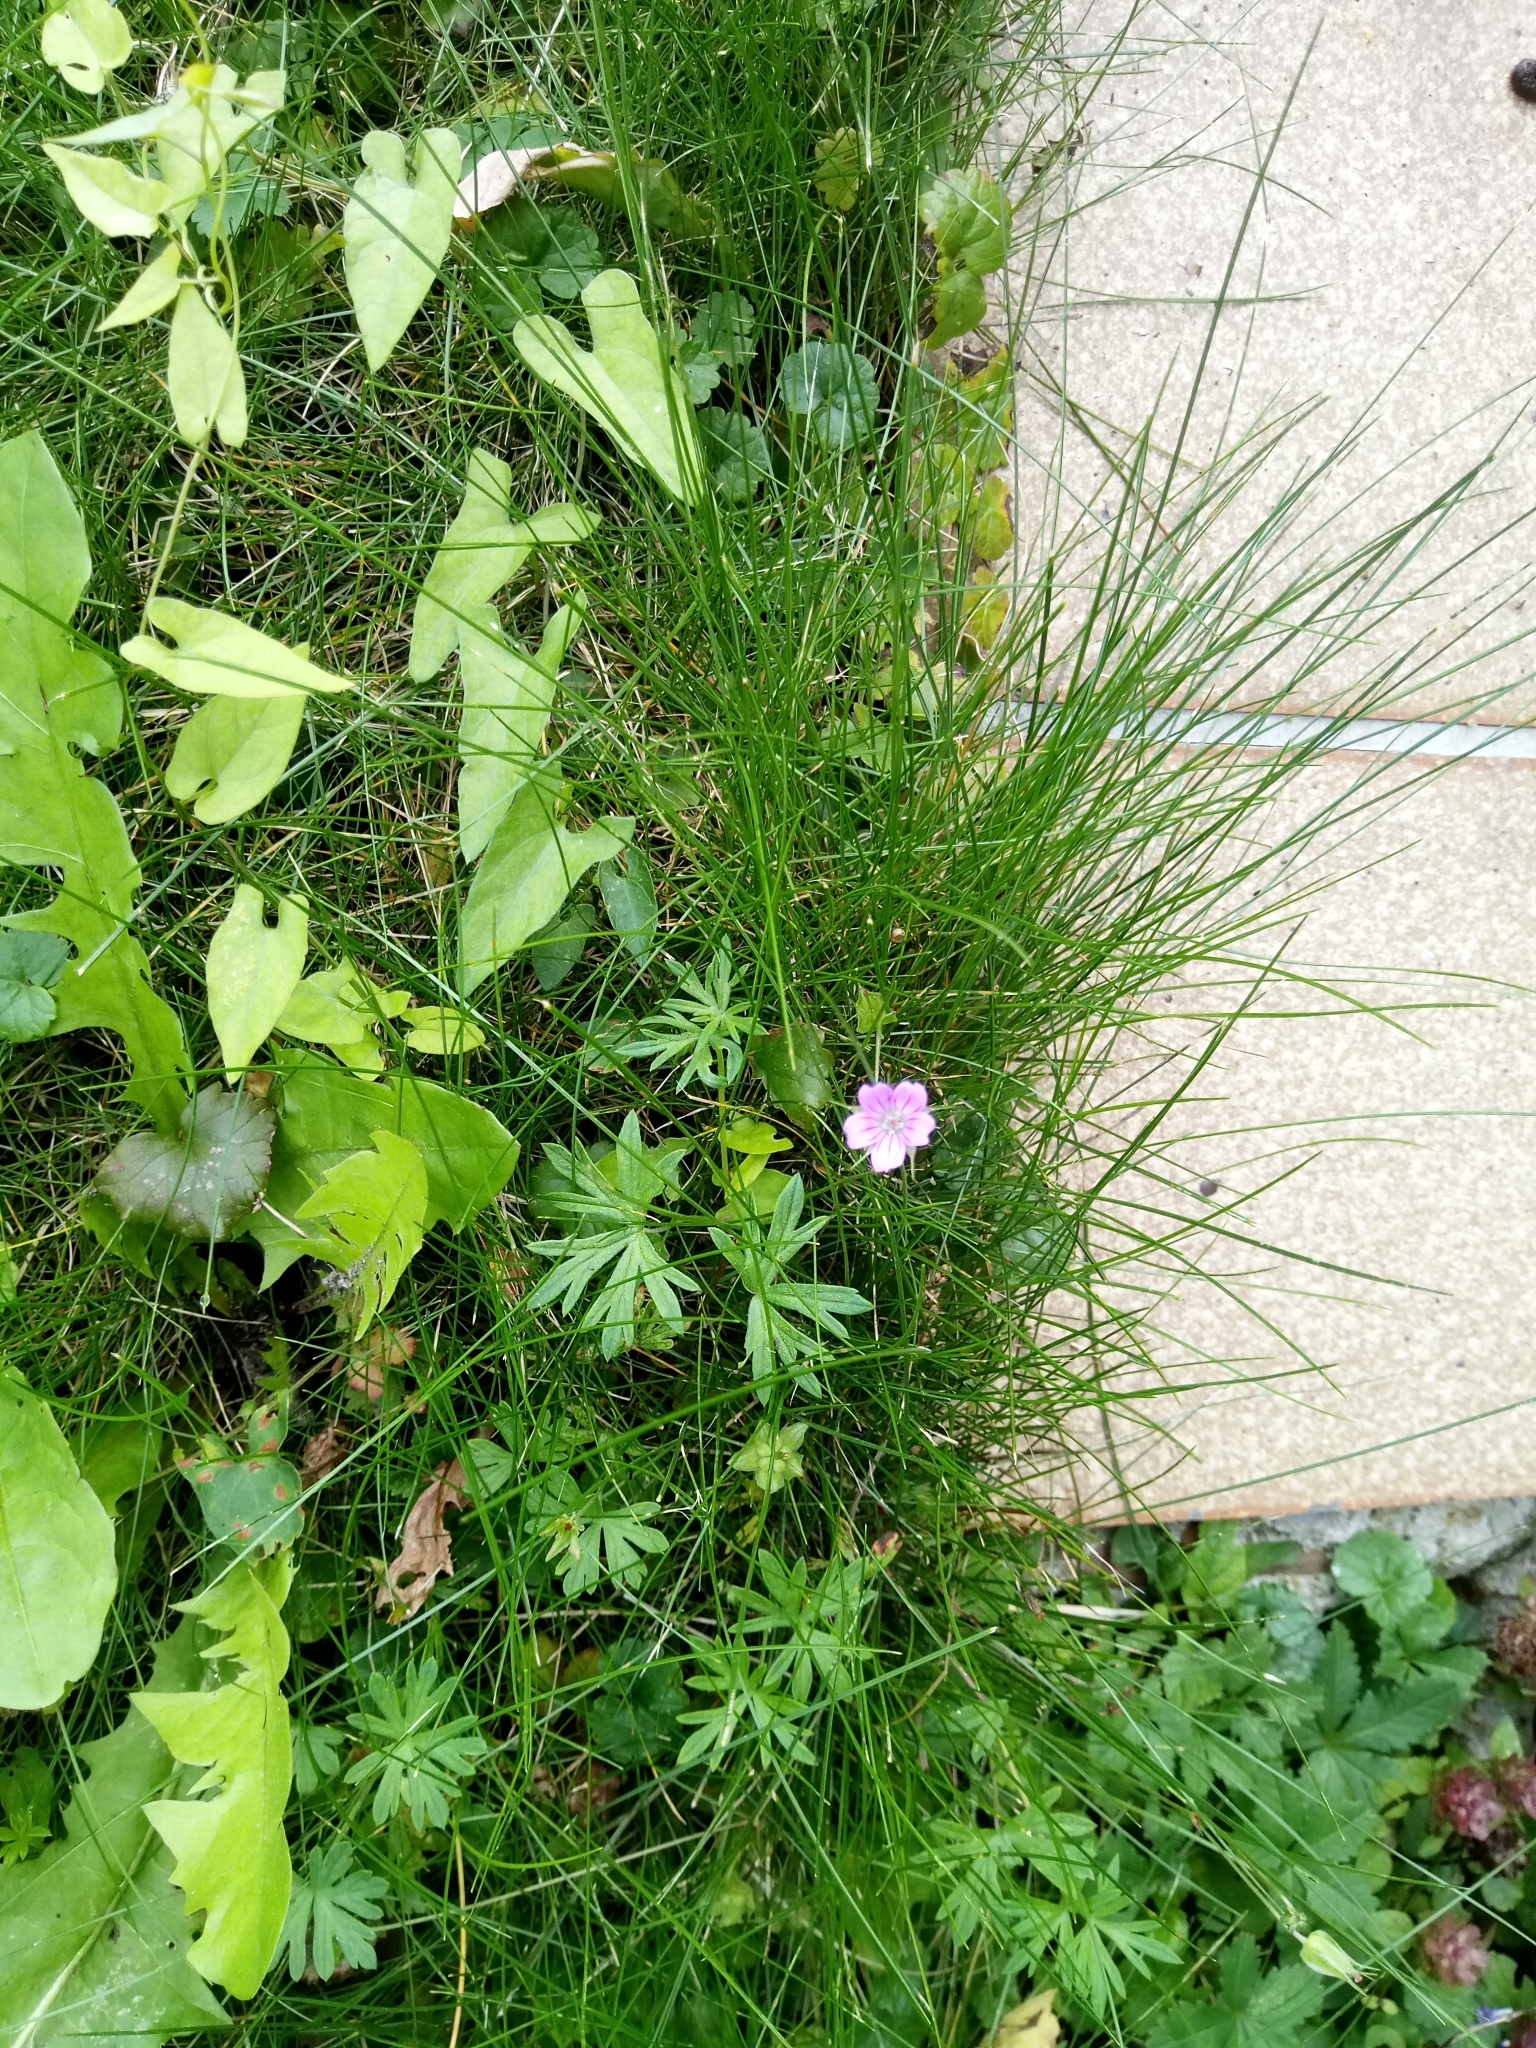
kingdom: Plantae
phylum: Tracheophyta
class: Magnoliopsida
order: Geraniales
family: Geraniaceae
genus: Geranium
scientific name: Geranium columbinum
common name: Long-stalked crane's-bill
